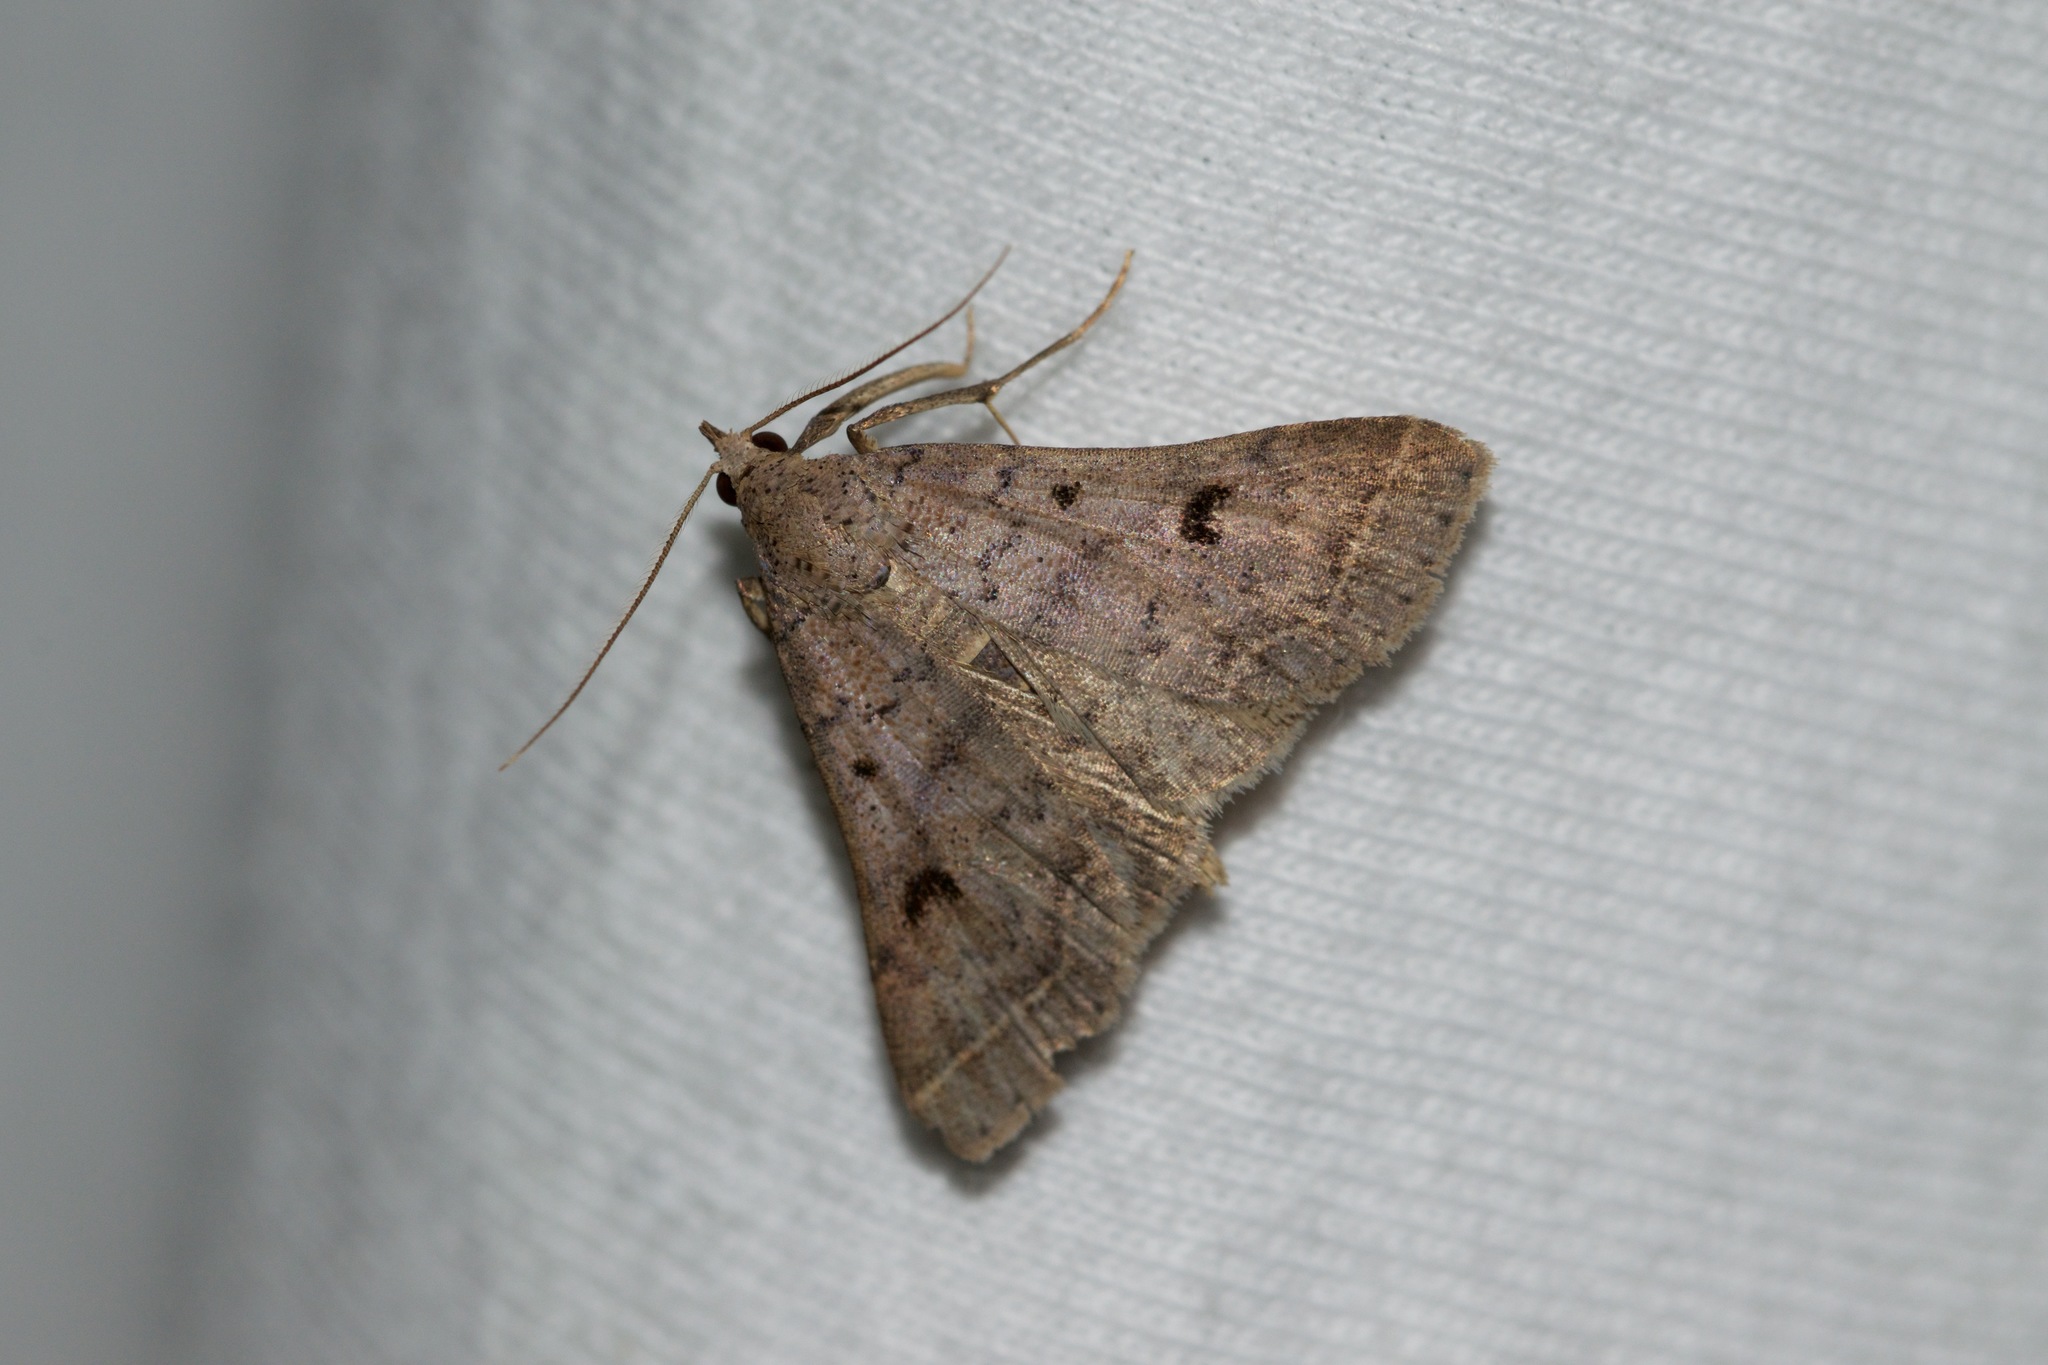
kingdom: Animalia
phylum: Arthropoda
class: Insecta
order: Lepidoptera
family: Erebidae
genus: Bleptina
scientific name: Bleptina caradrinalis
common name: Bent-winged owlet
